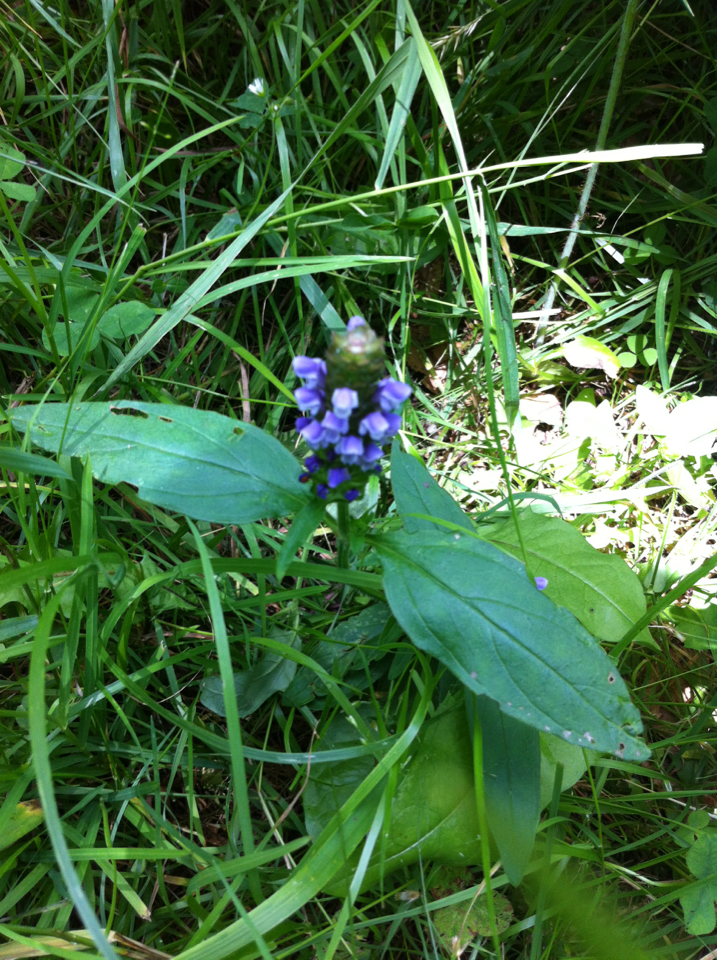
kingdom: Plantae
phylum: Tracheophyta
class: Magnoliopsida
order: Lamiales
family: Lamiaceae
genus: Prunella
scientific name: Prunella vulgaris
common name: Heal-all
